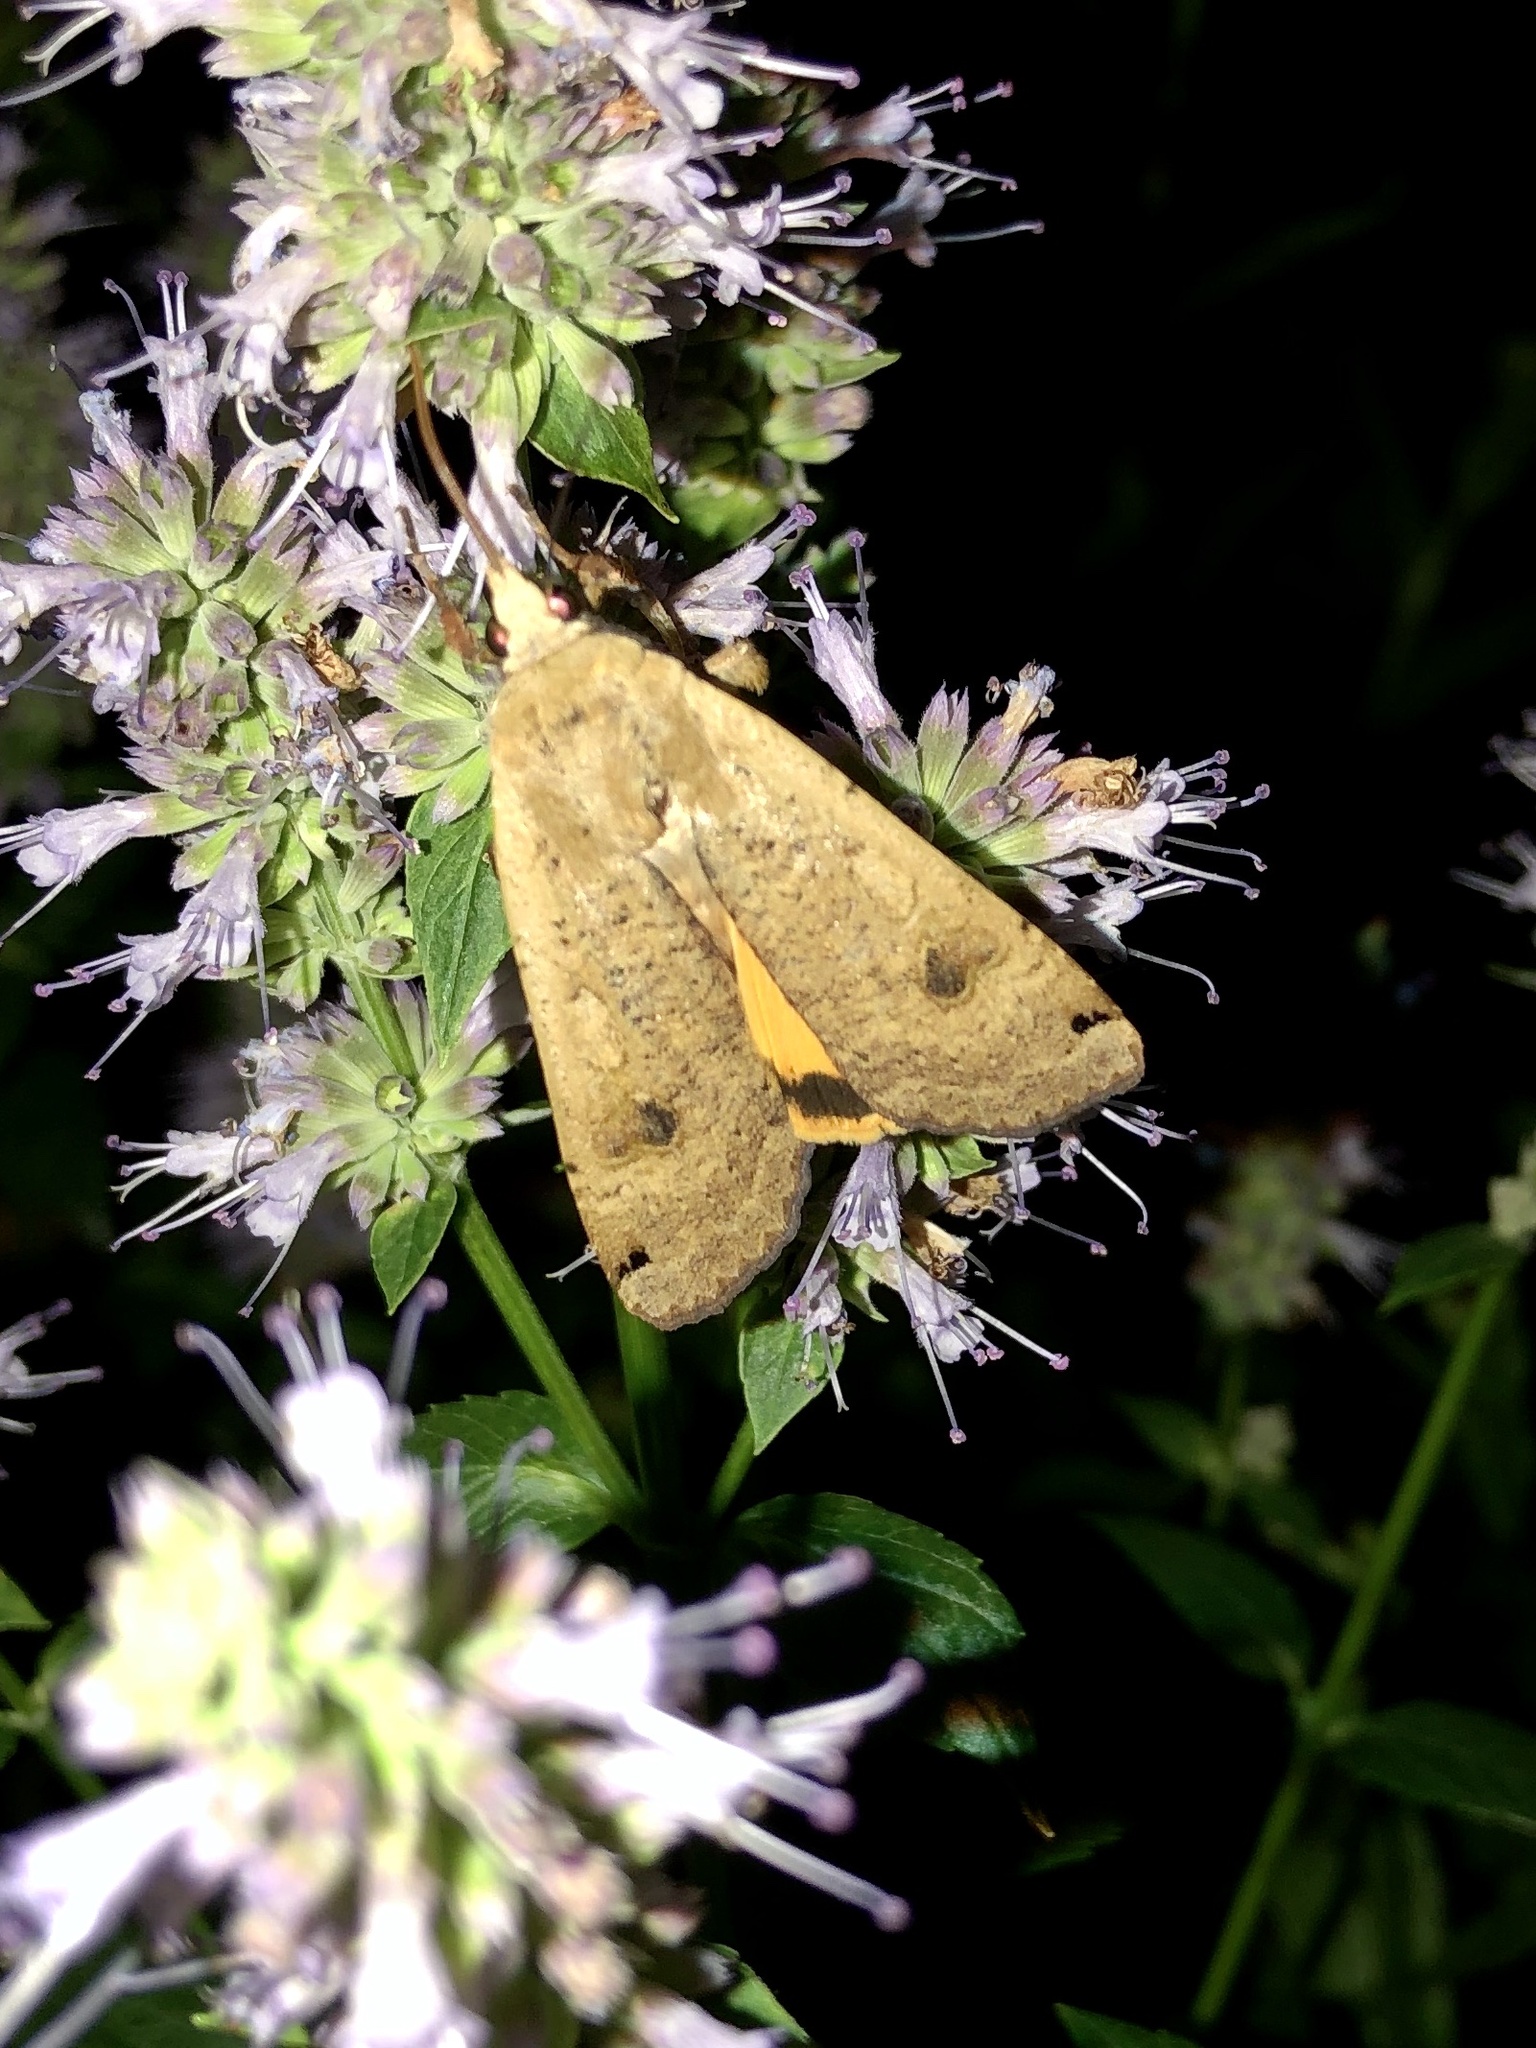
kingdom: Animalia
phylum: Arthropoda
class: Insecta
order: Lepidoptera
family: Noctuidae
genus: Noctua
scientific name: Noctua pronuba
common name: Large yellow underwing
